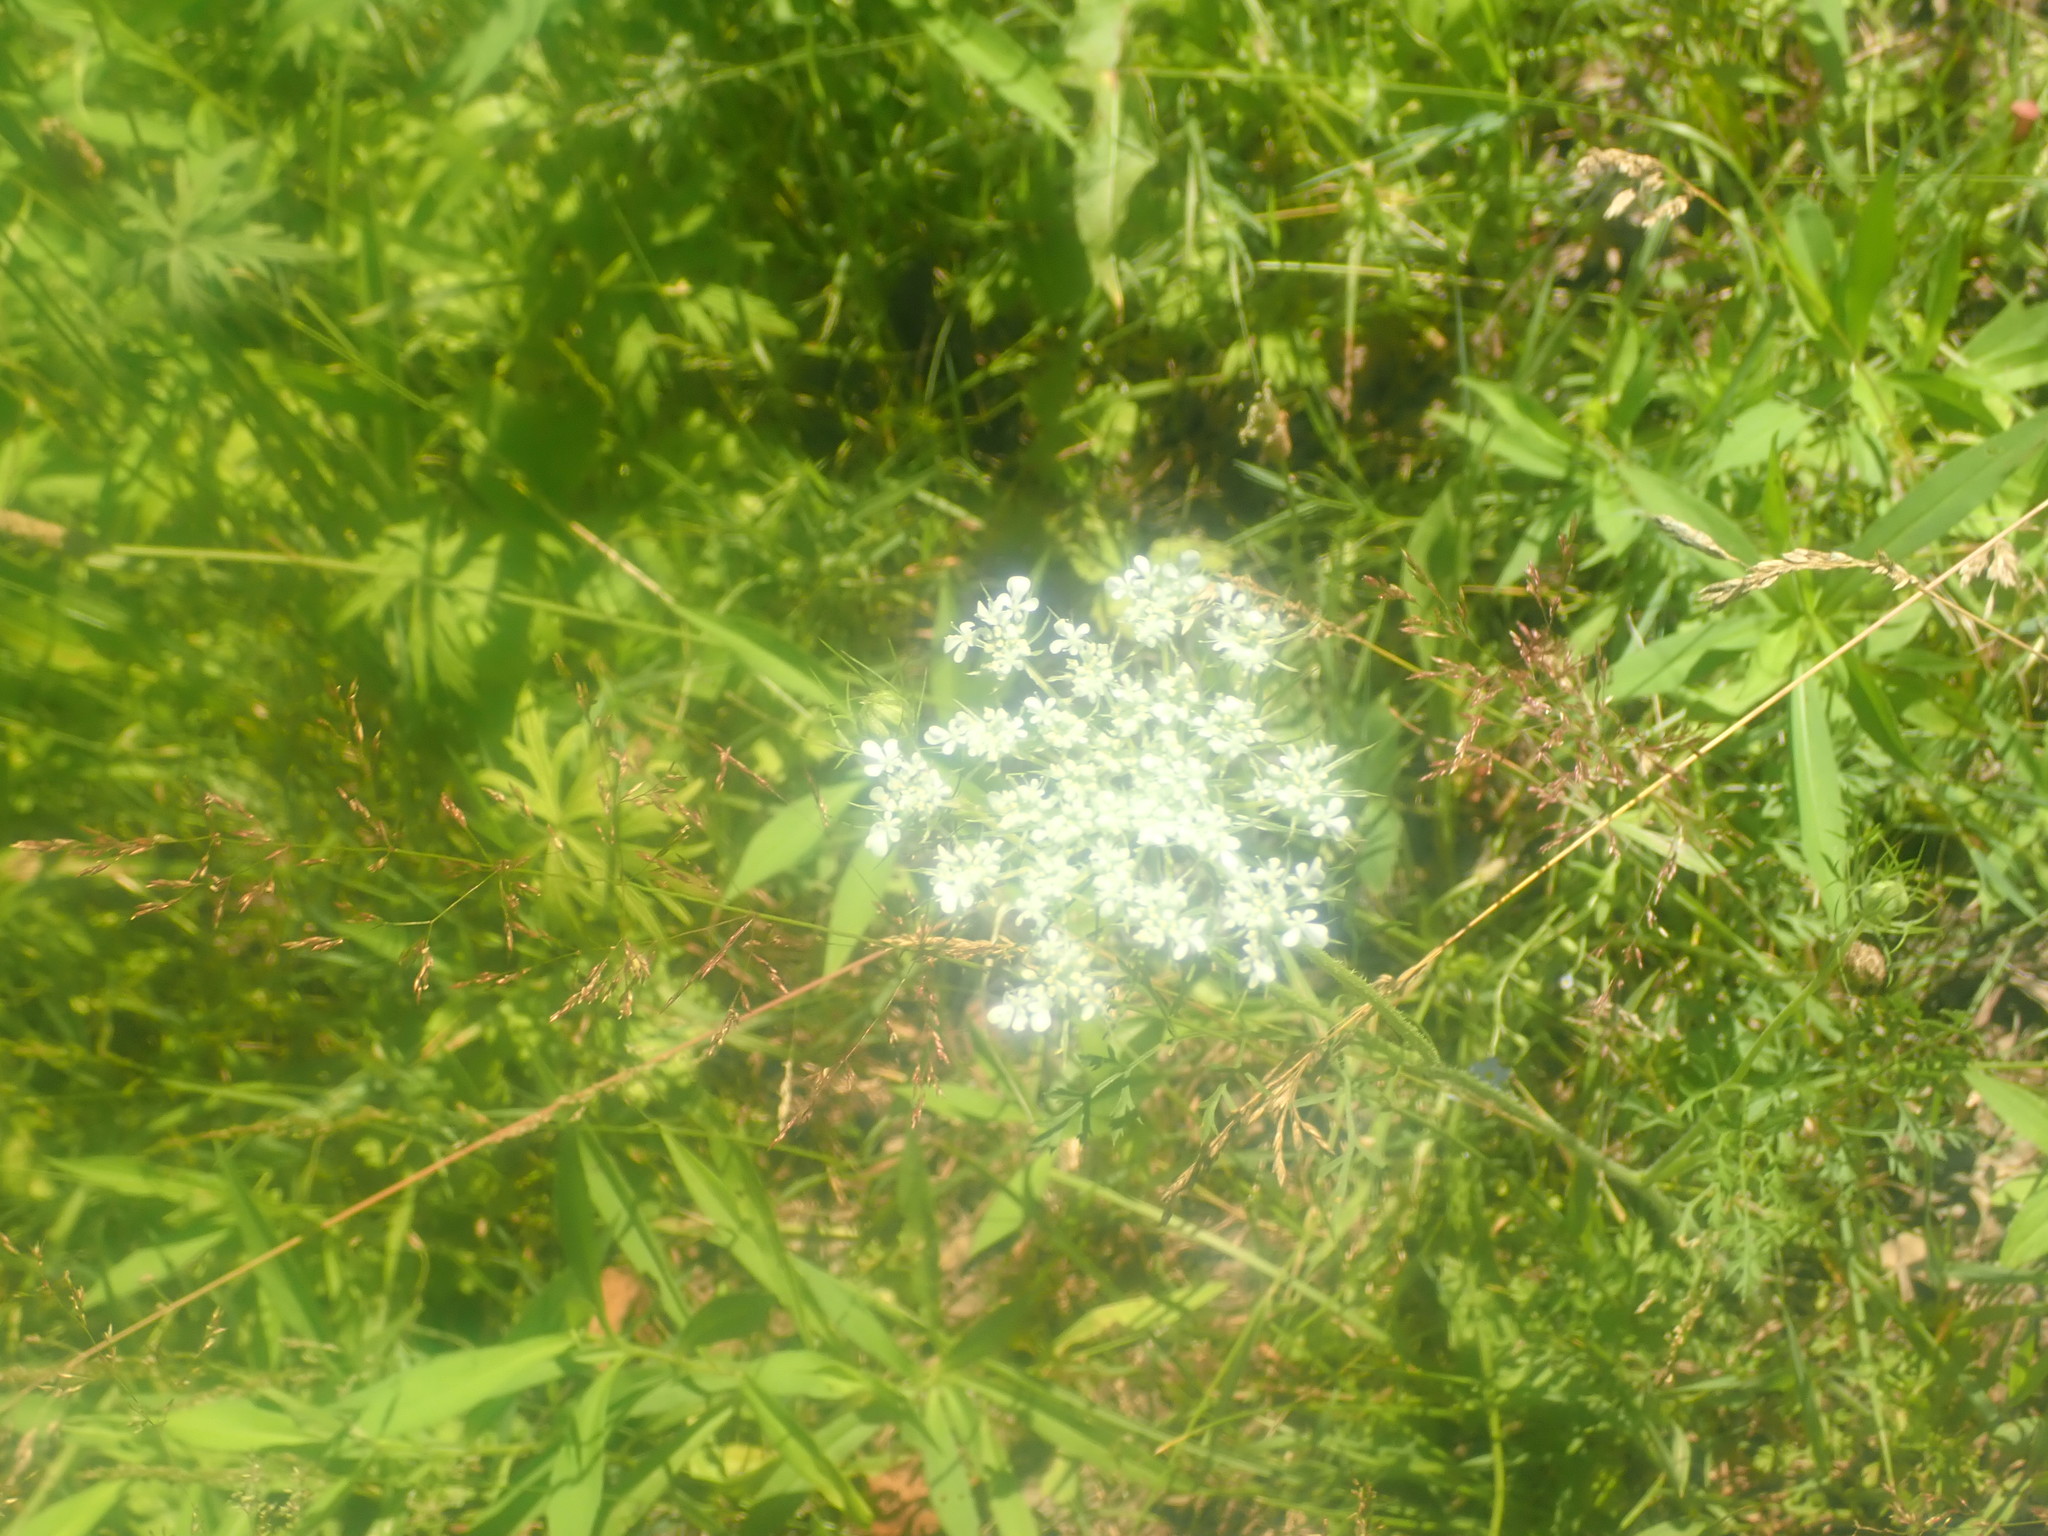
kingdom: Plantae
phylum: Tracheophyta
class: Magnoliopsida
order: Apiales
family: Apiaceae
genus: Daucus
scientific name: Daucus carota
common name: Wild carrot
